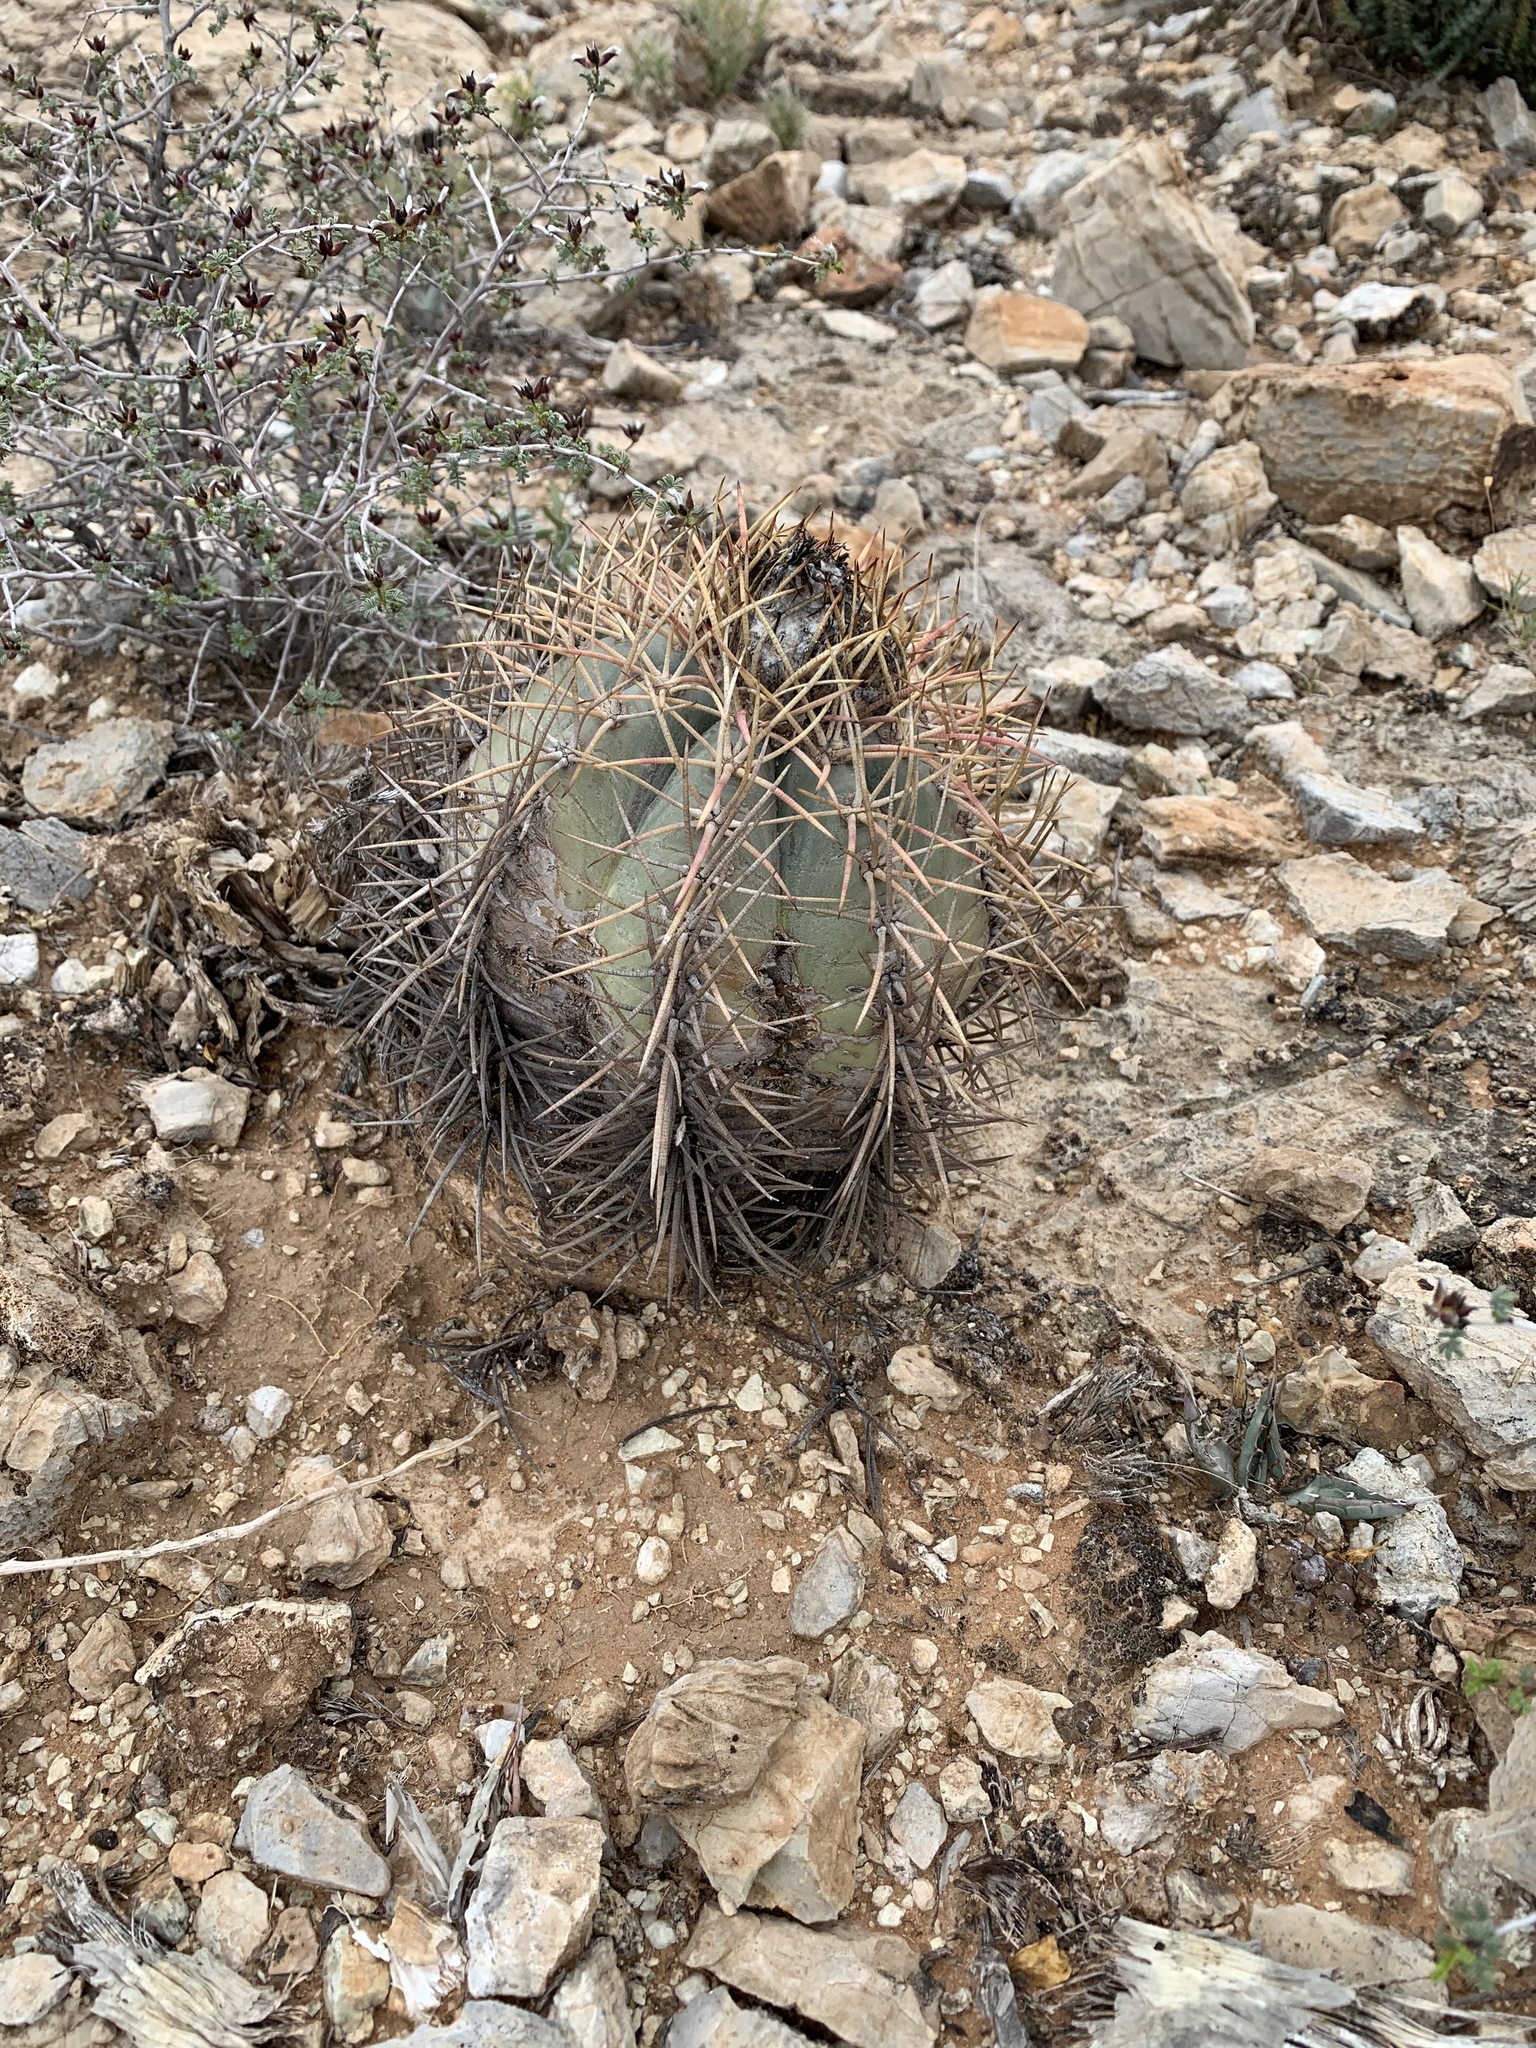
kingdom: Plantae
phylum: Tracheophyta
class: Magnoliopsida
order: Caryophyllales
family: Cactaceae
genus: Echinocactus
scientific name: Echinocactus horizonthalonius
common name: Devilshead
